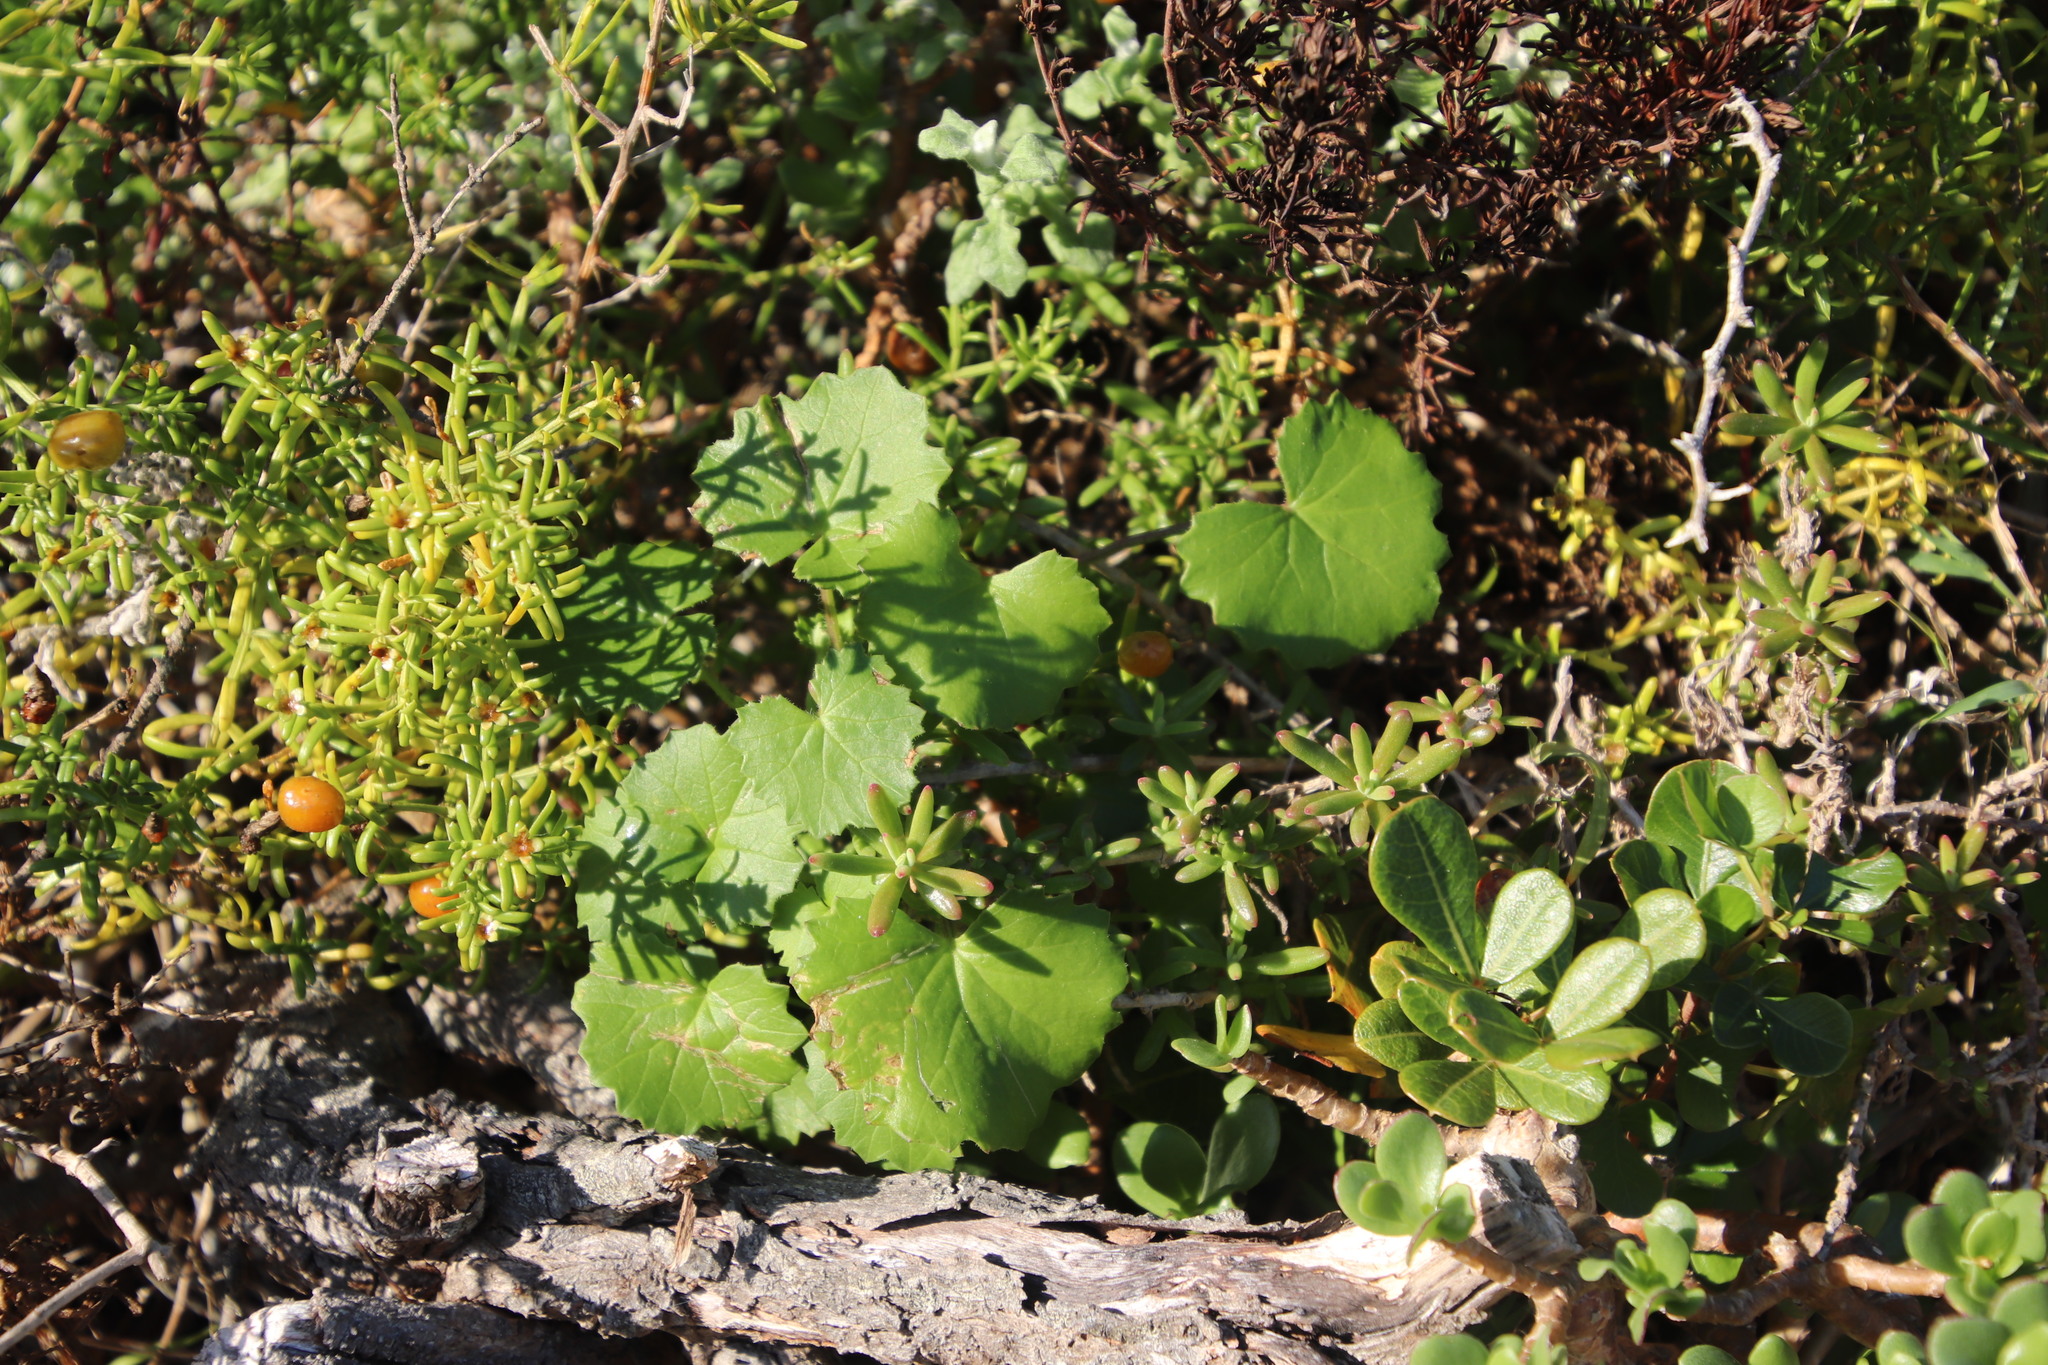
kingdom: Plantae
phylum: Tracheophyta
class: Magnoliopsida
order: Asterales
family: Asteraceae
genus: Cineraria
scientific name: Cineraria geifolia
